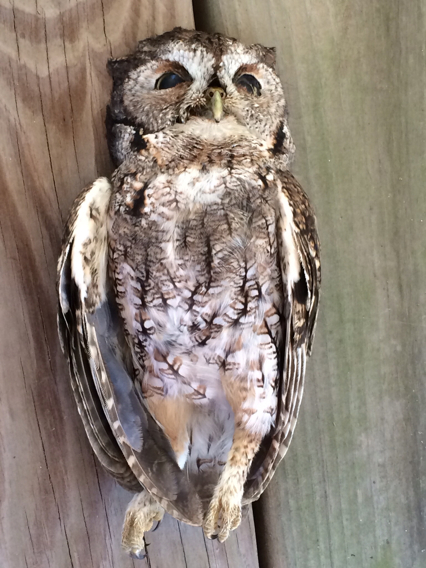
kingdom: Animalia
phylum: Chordata
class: Aves
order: Strigiformes
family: Strigidae
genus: Megascops
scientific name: Megascops asio
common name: Eastern screech-owl
